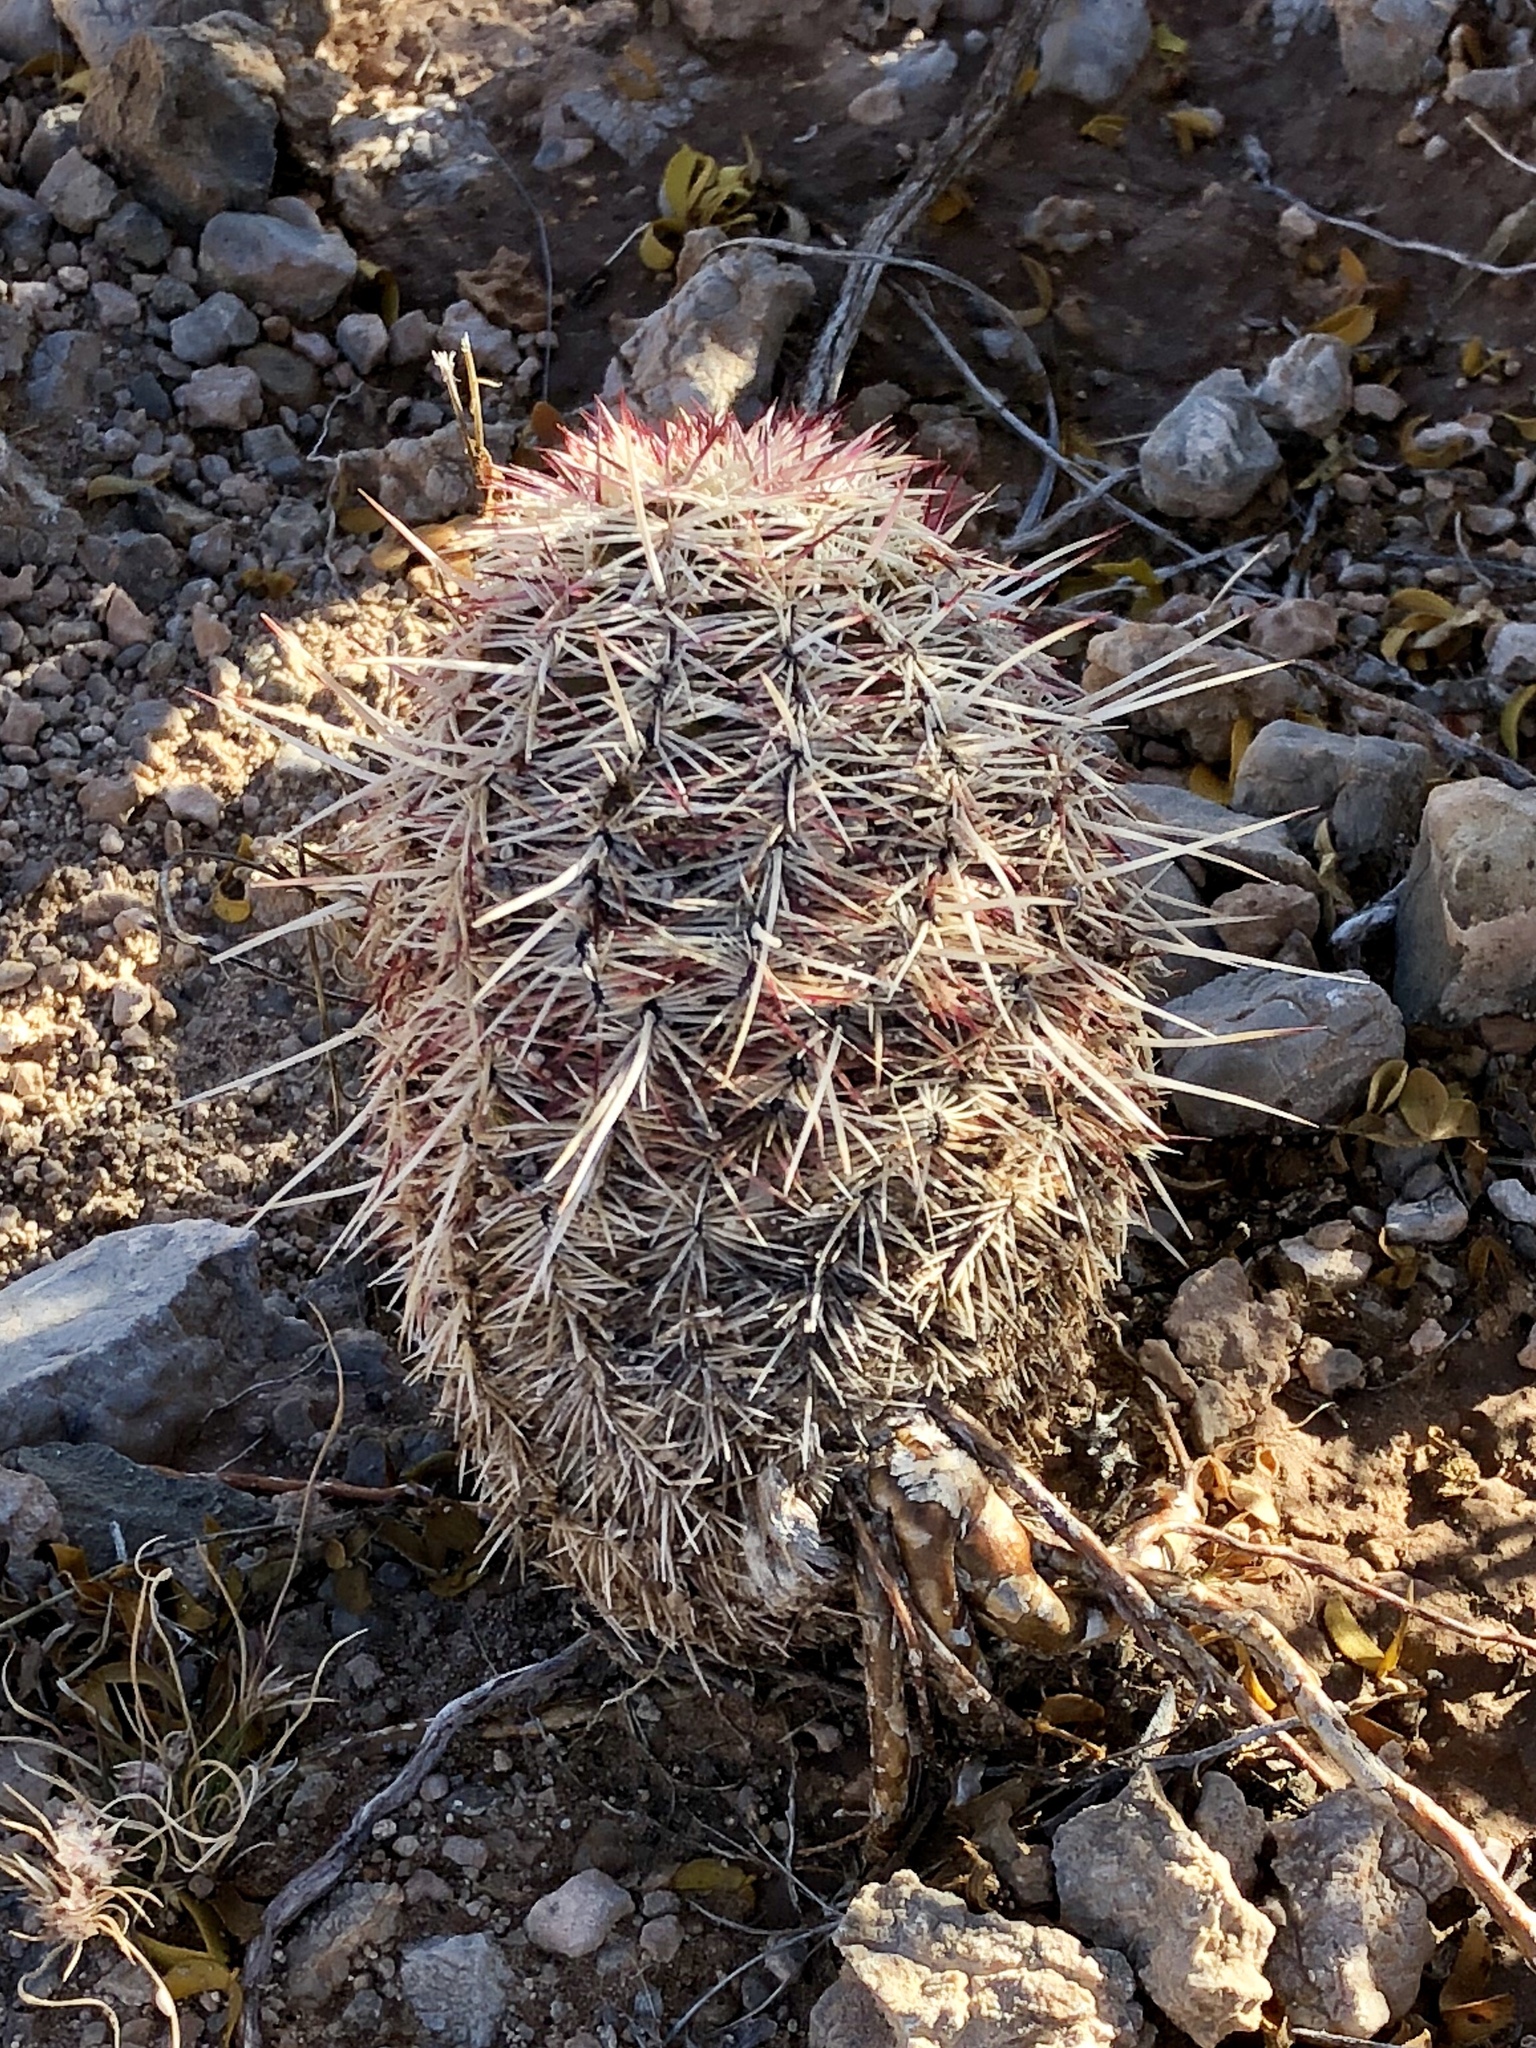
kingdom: Plantae
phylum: Tracheophyta
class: Magnoliopsida
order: Caryophyllales
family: Cactaceae
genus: Echinocereus
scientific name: Echinocereus viridiflorus
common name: Nylon hedgehog cactus
